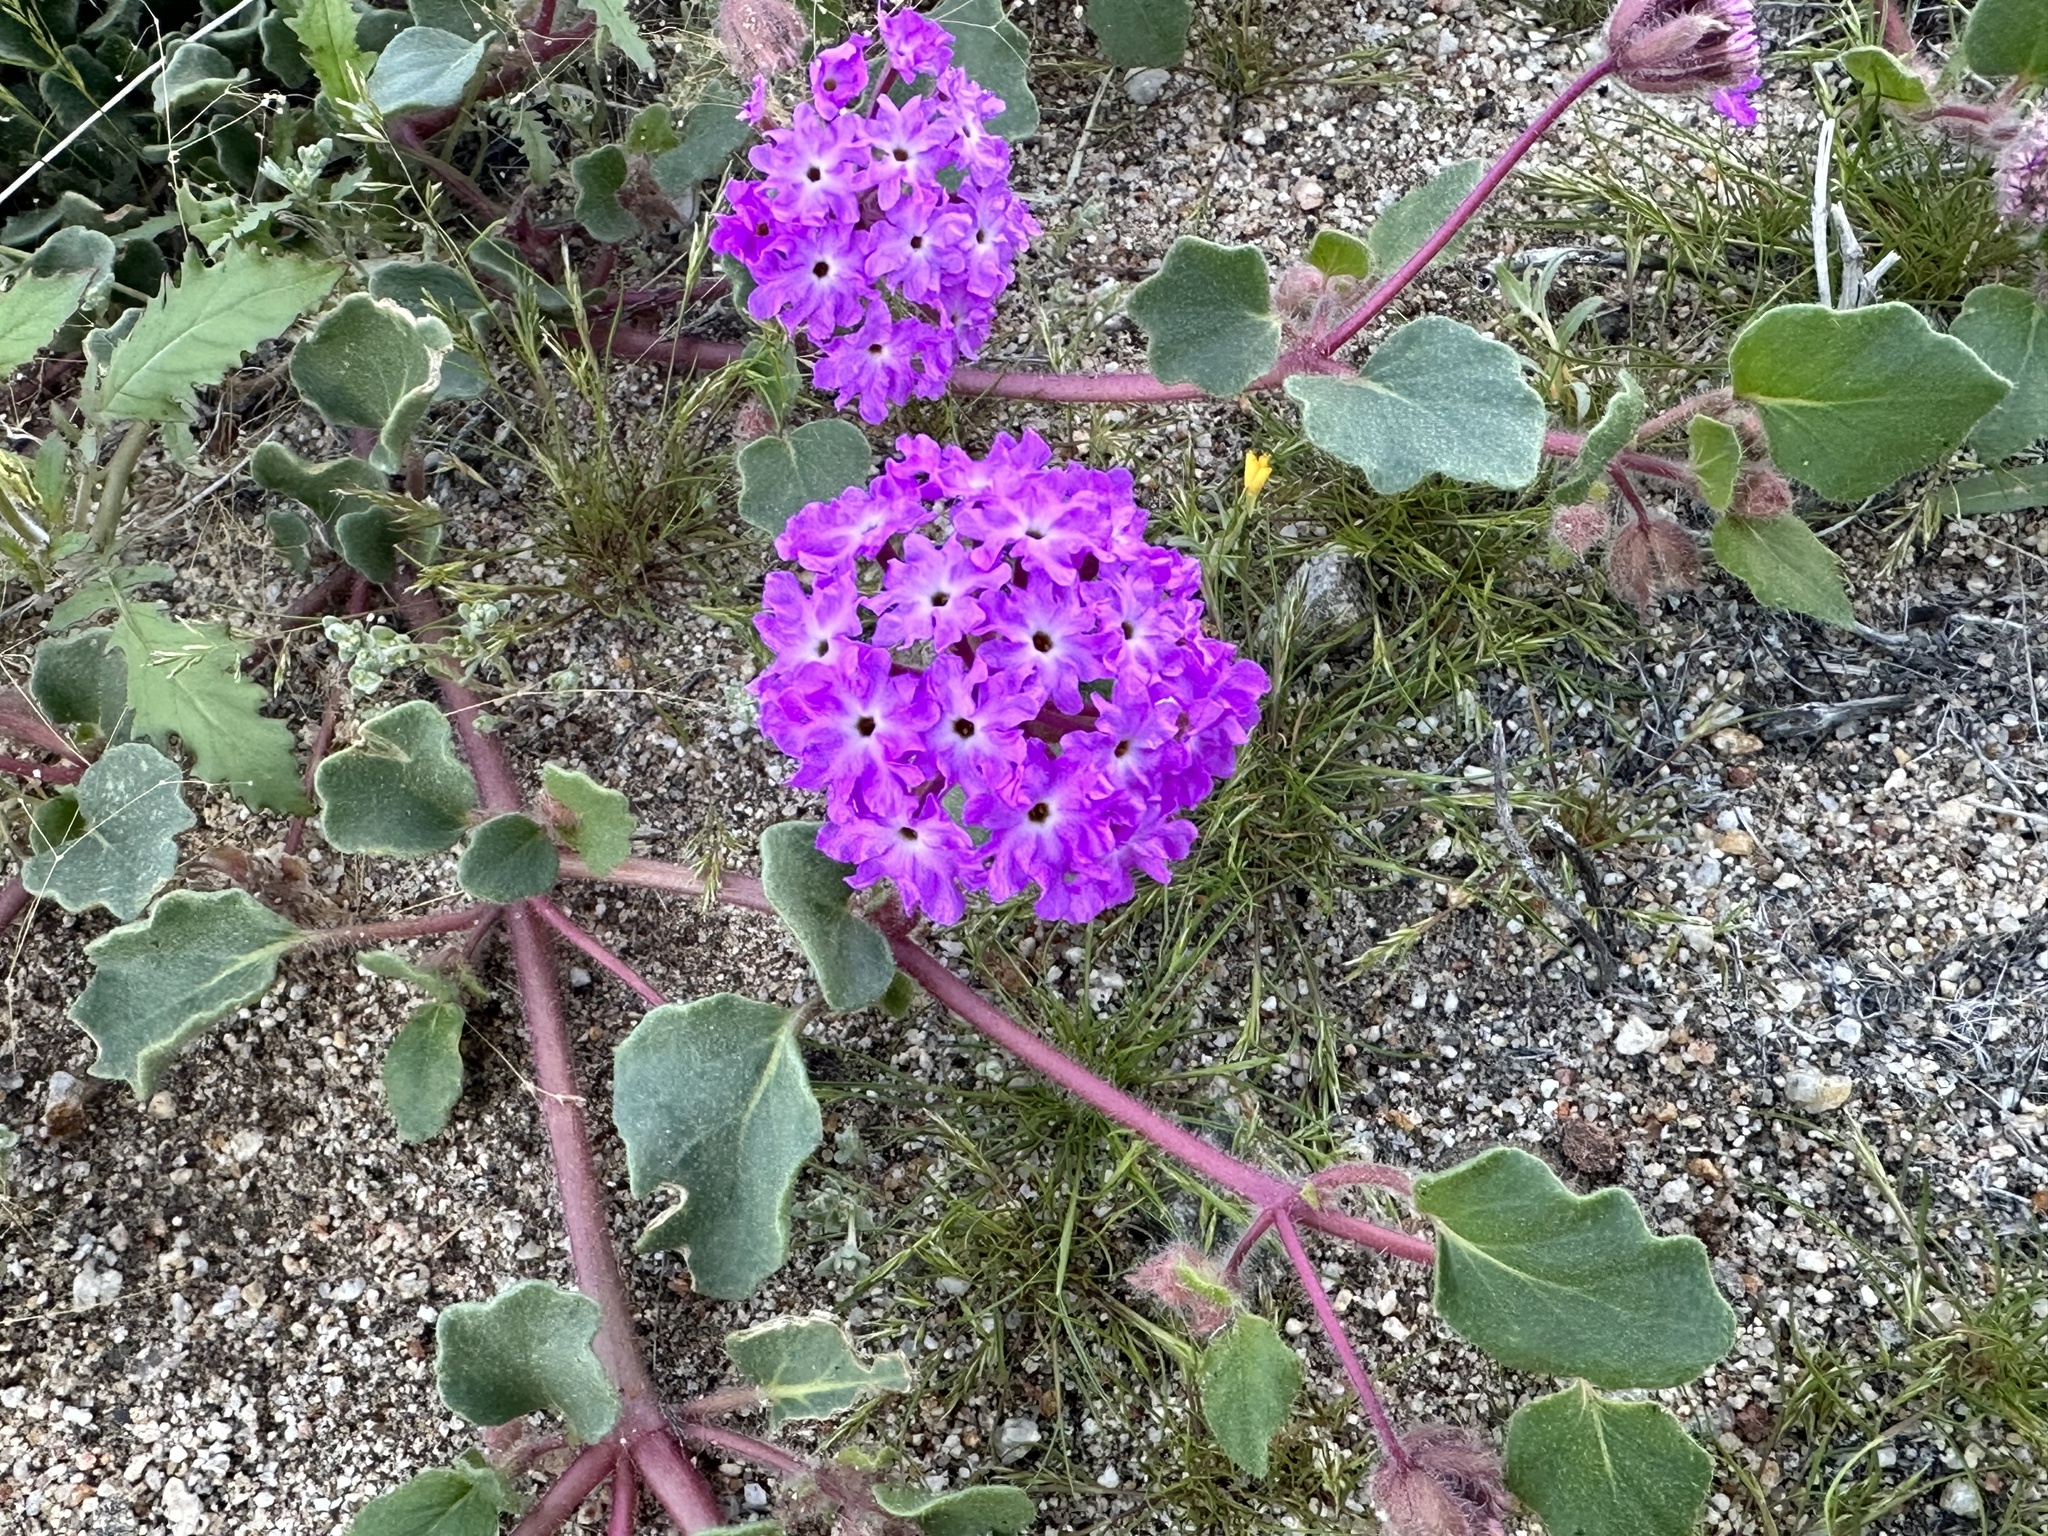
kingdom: Plantae
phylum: Tracheophyta
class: Magnoliopsida
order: Caryophyllales
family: Nyctaginaceae
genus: Abronia
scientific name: Abronia villosa
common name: Desert sand-verbena
